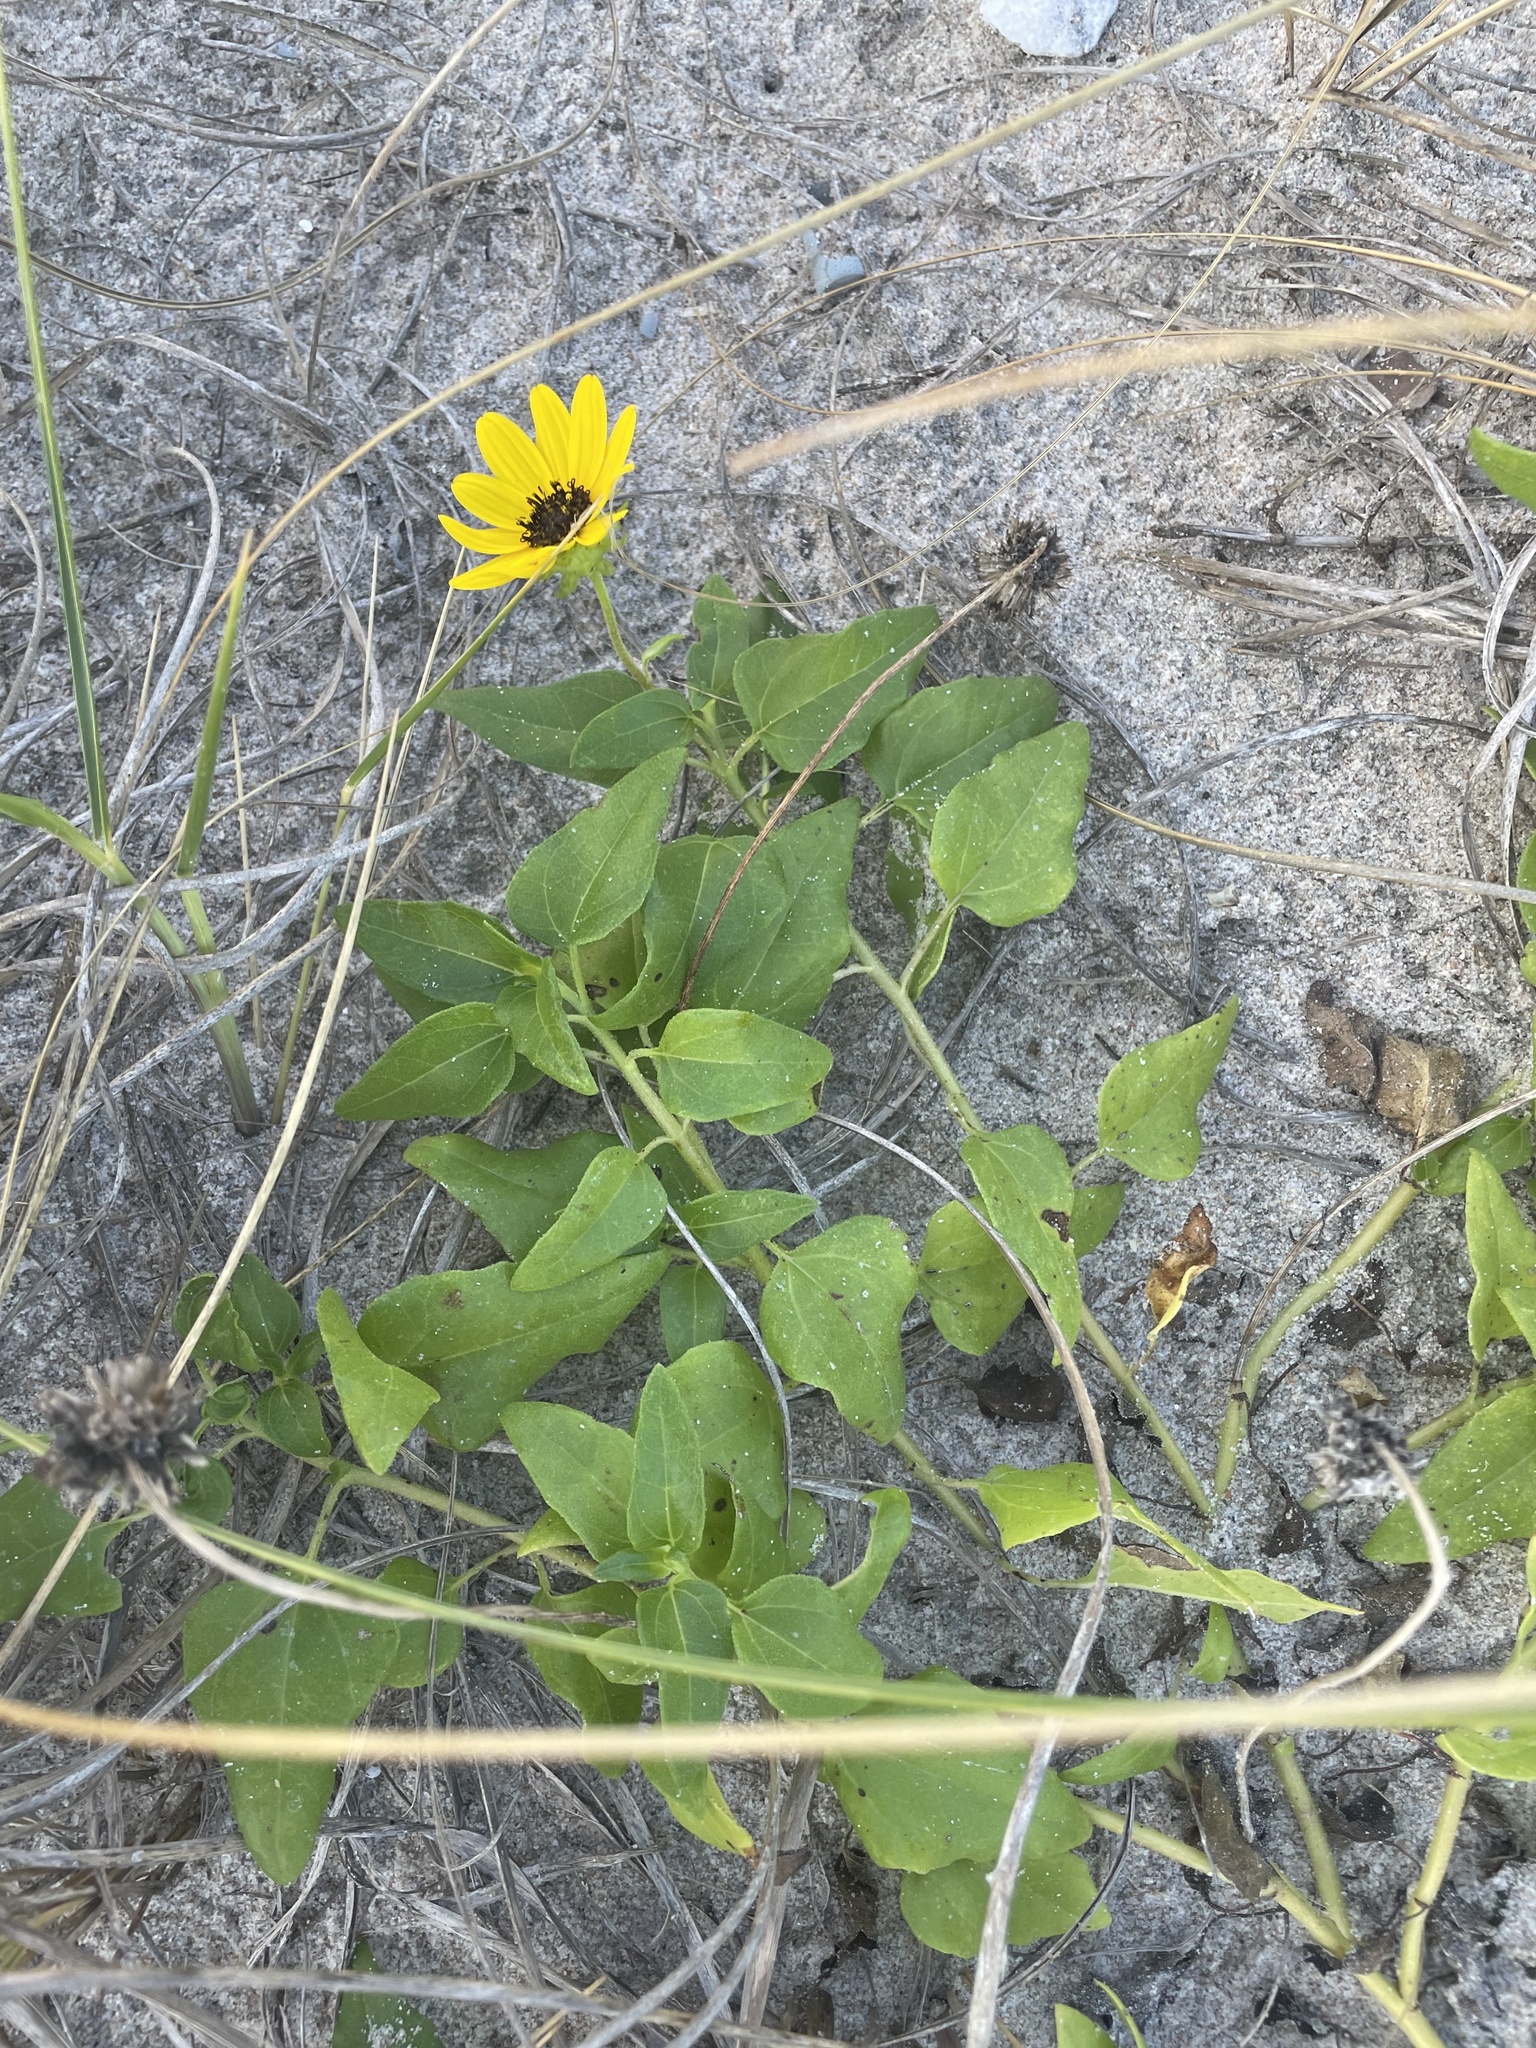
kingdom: Plantae
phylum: Tracheophyta
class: Magnoliopsida
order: Asterales
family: Asteraceae
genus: Helianthus
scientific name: Helianthus debilis
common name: Weak sunflower
